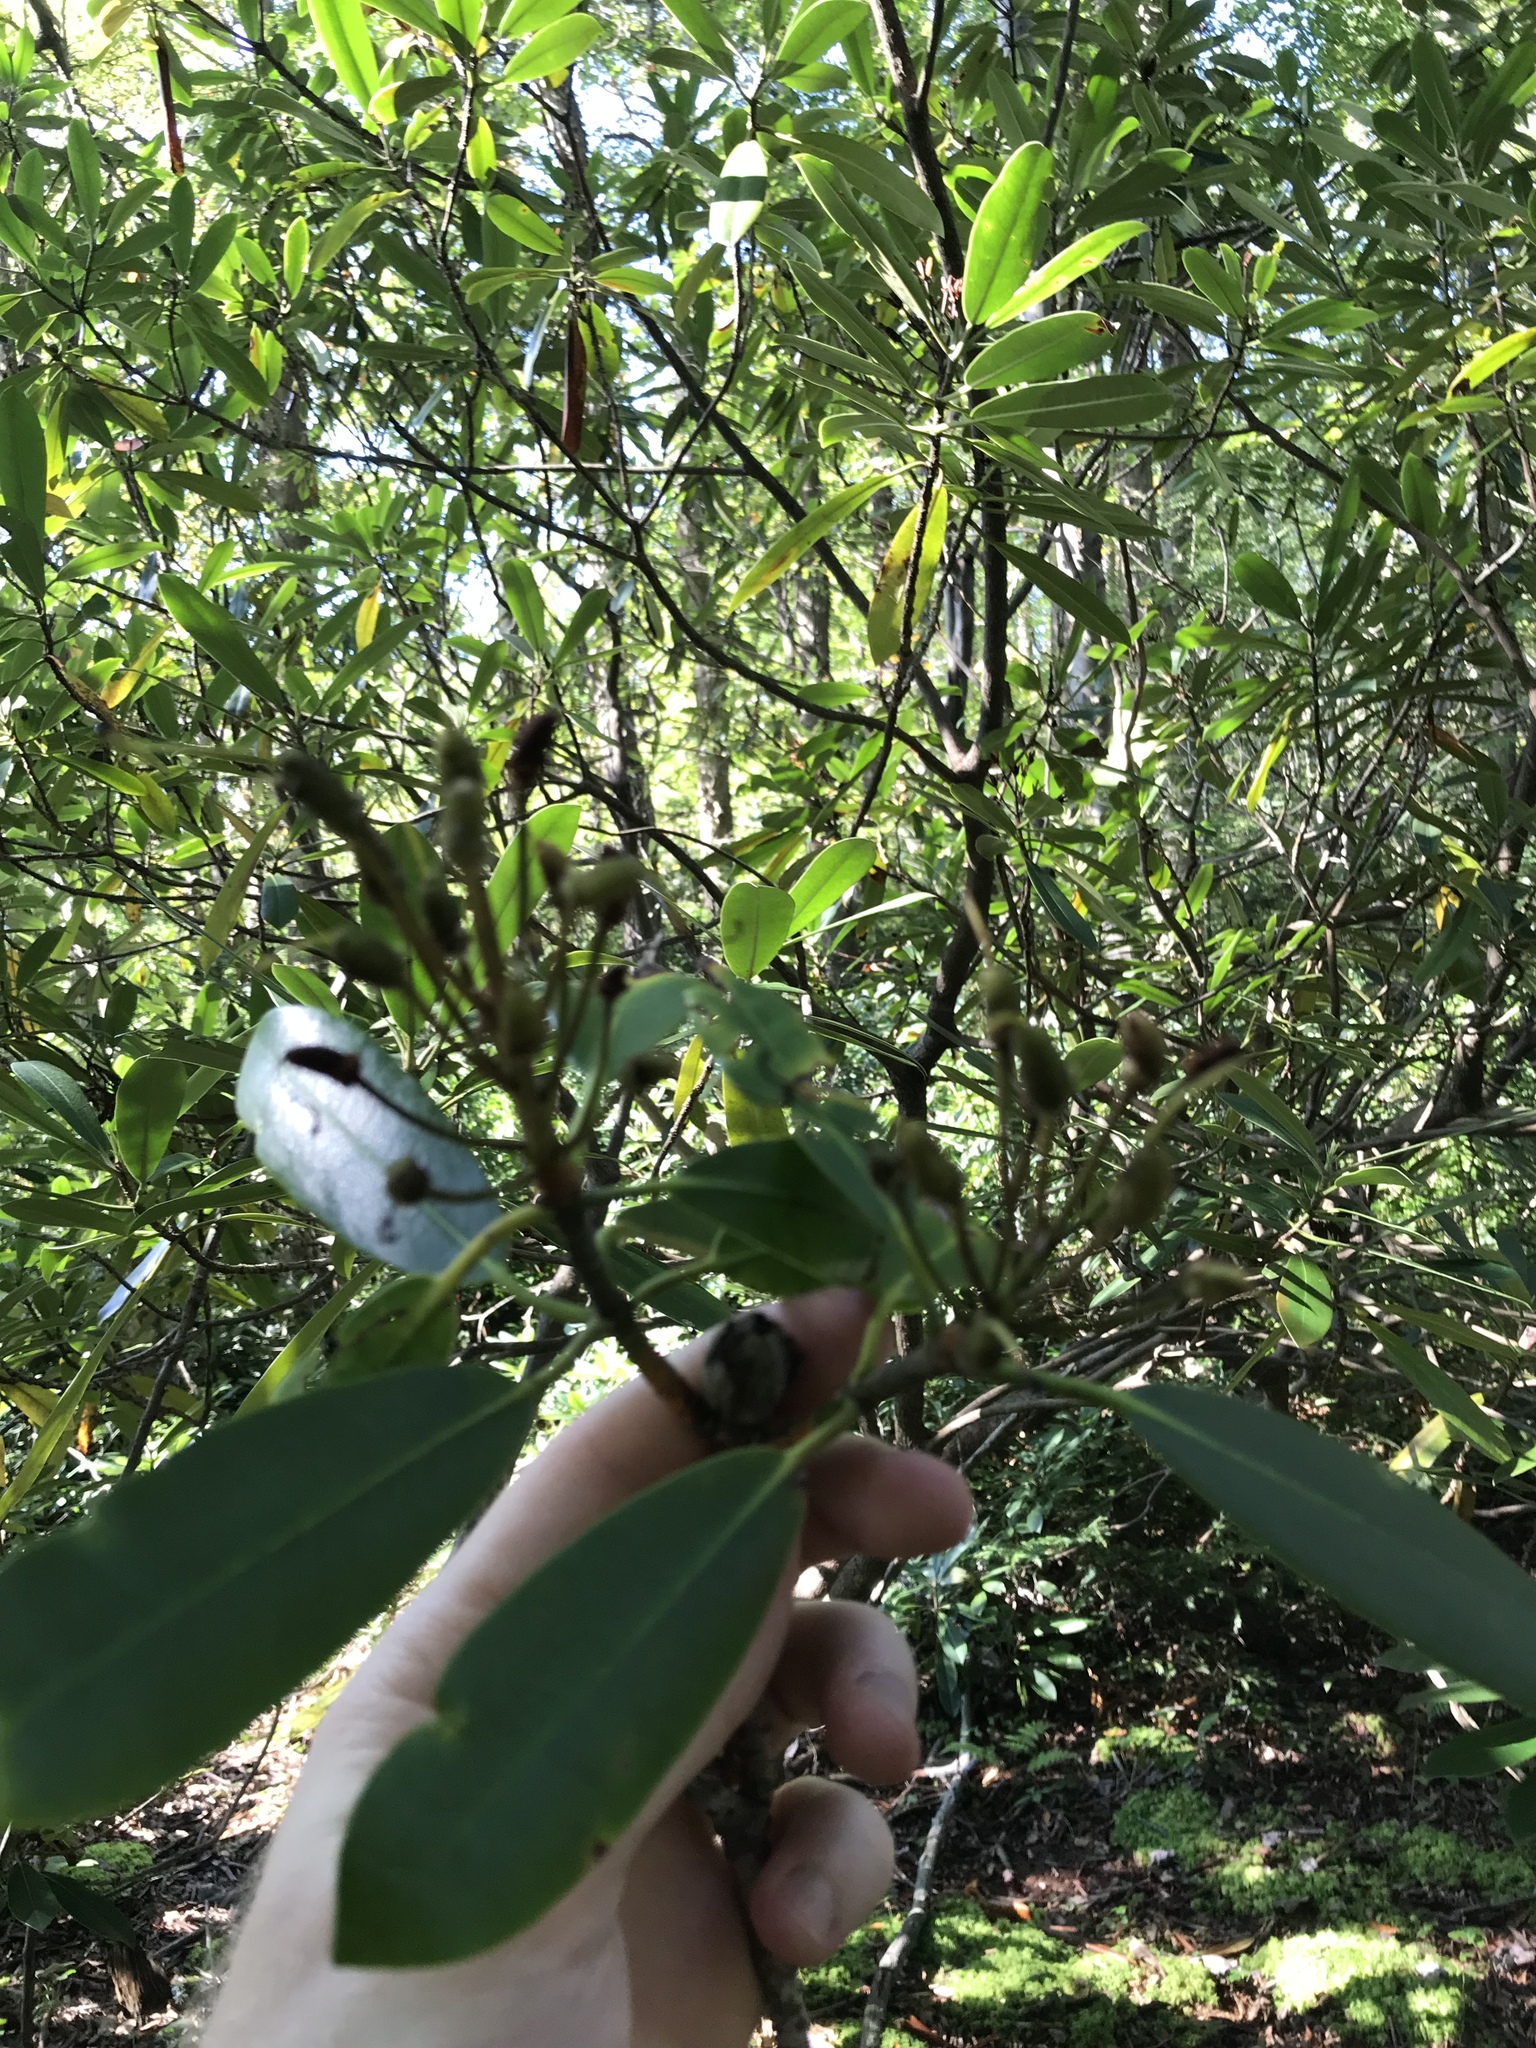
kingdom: Plantae
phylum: Tracheophyta
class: Magnoliopsida
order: Ericales
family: Ericaceae
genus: Rhododendron
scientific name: Rhododendron maximum
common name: Great rhododendron
